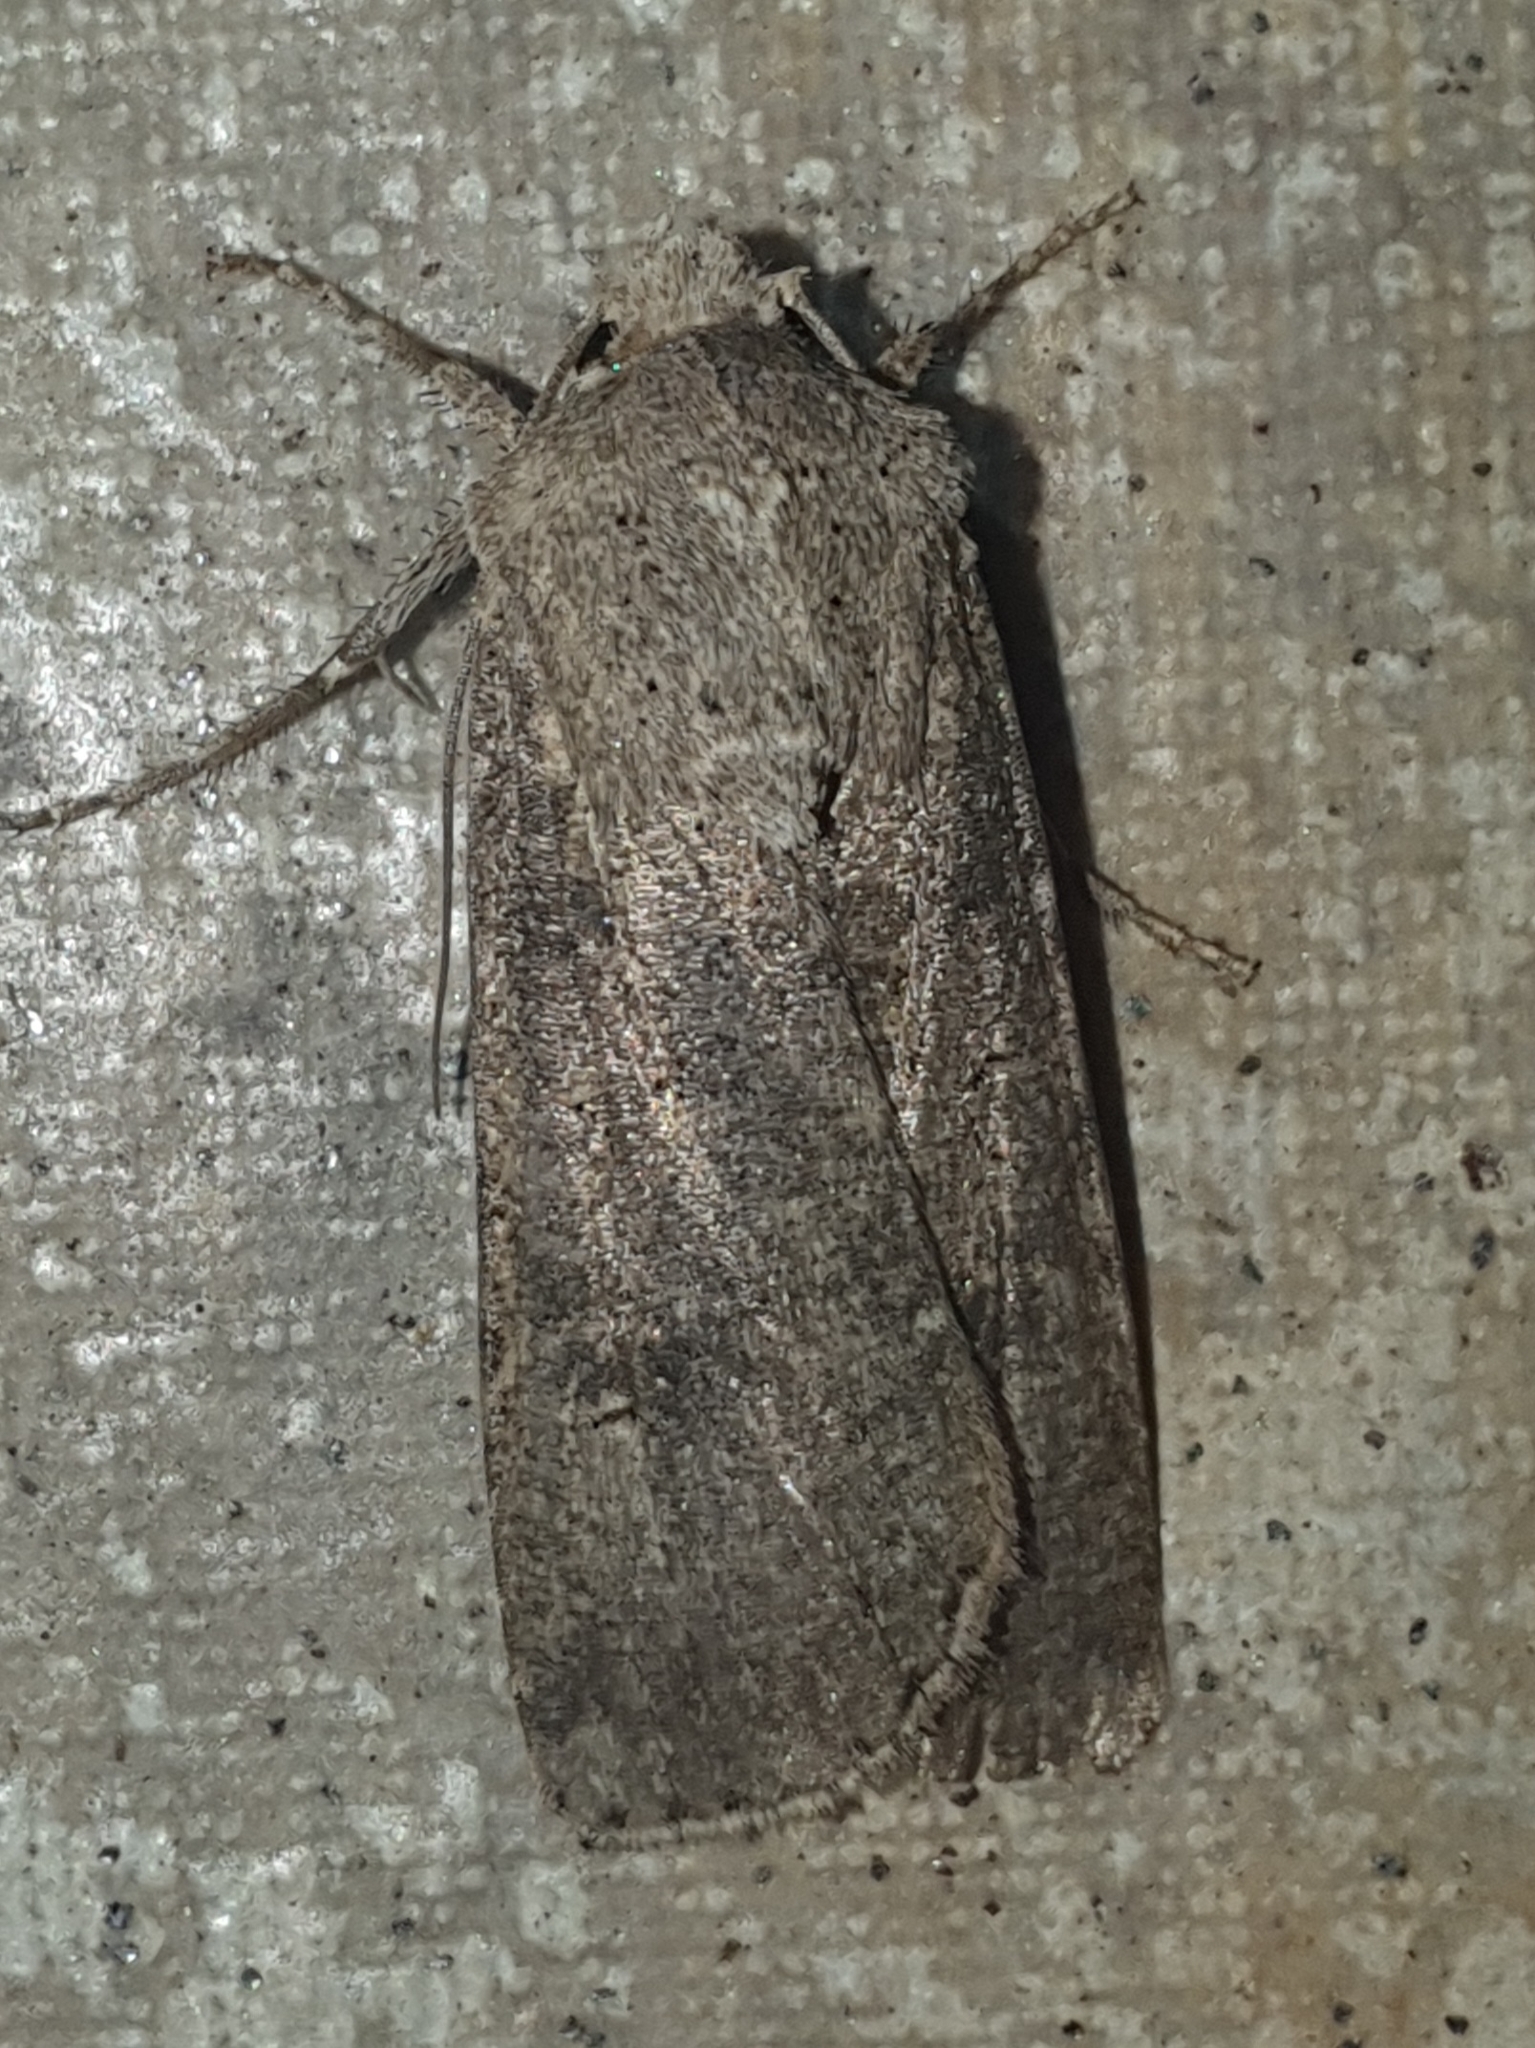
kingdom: Animalia
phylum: Arthropoda
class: Insecta
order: Lepidoptera
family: Noctuidae
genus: Agrotis
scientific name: Agrotis segetum
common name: Turnip moth
